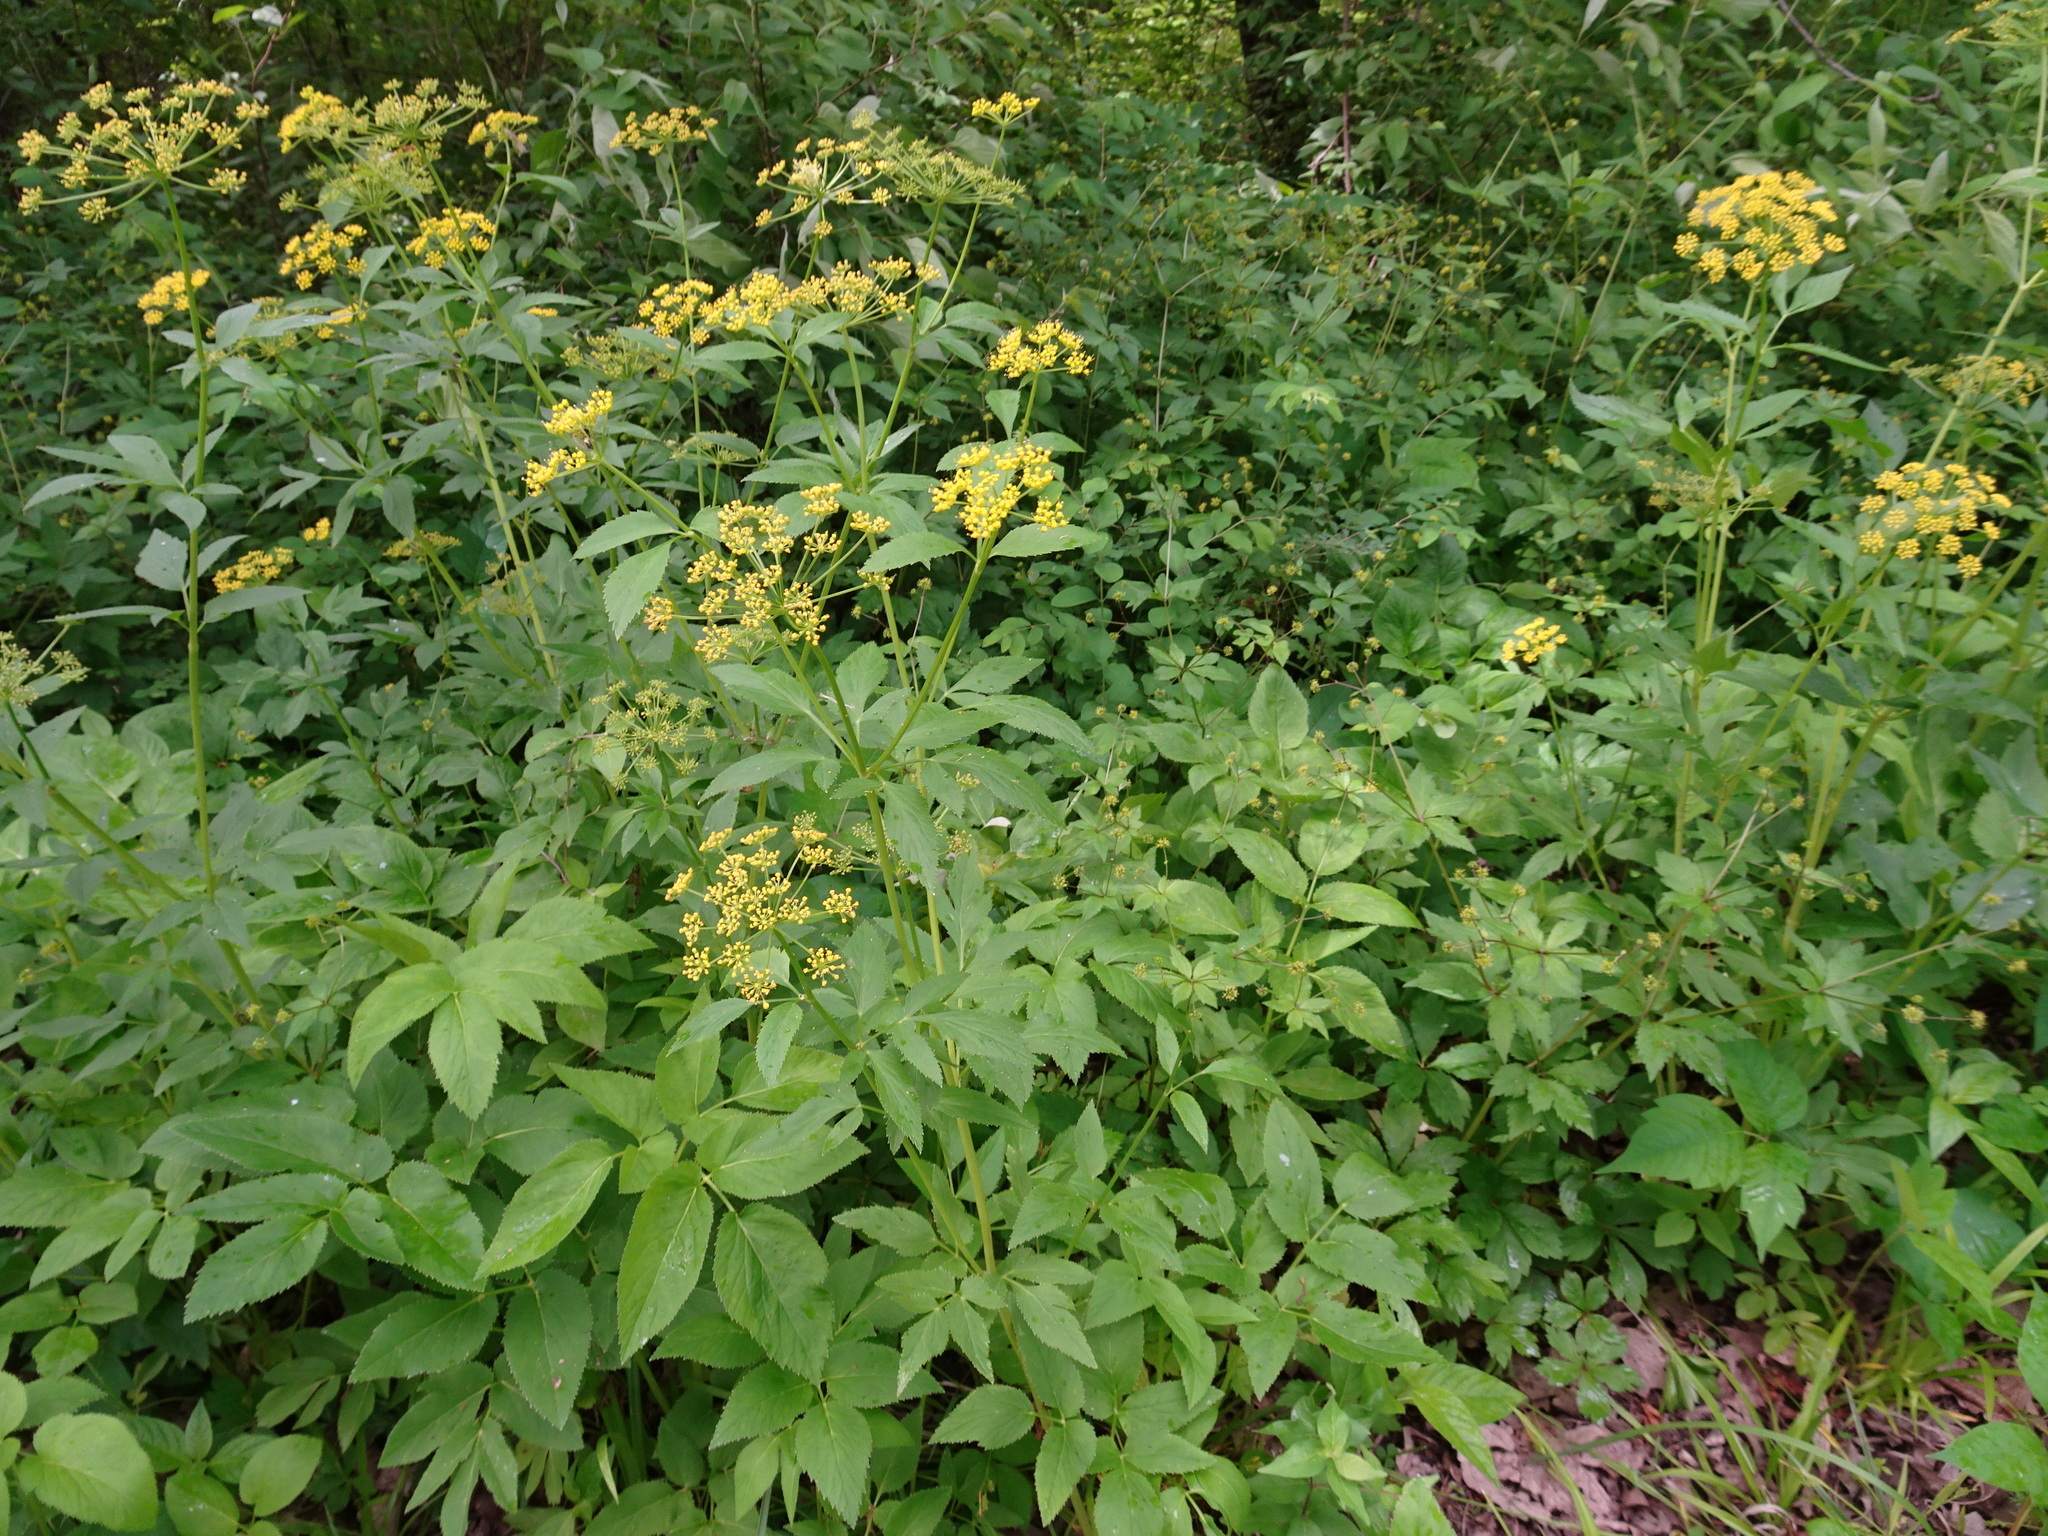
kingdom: Plantae
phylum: Tracheophyta
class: Magnoliopsida
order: Apiales
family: Apiaceae
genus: Zizia
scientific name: Zizia aurea
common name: Golden alexanders
